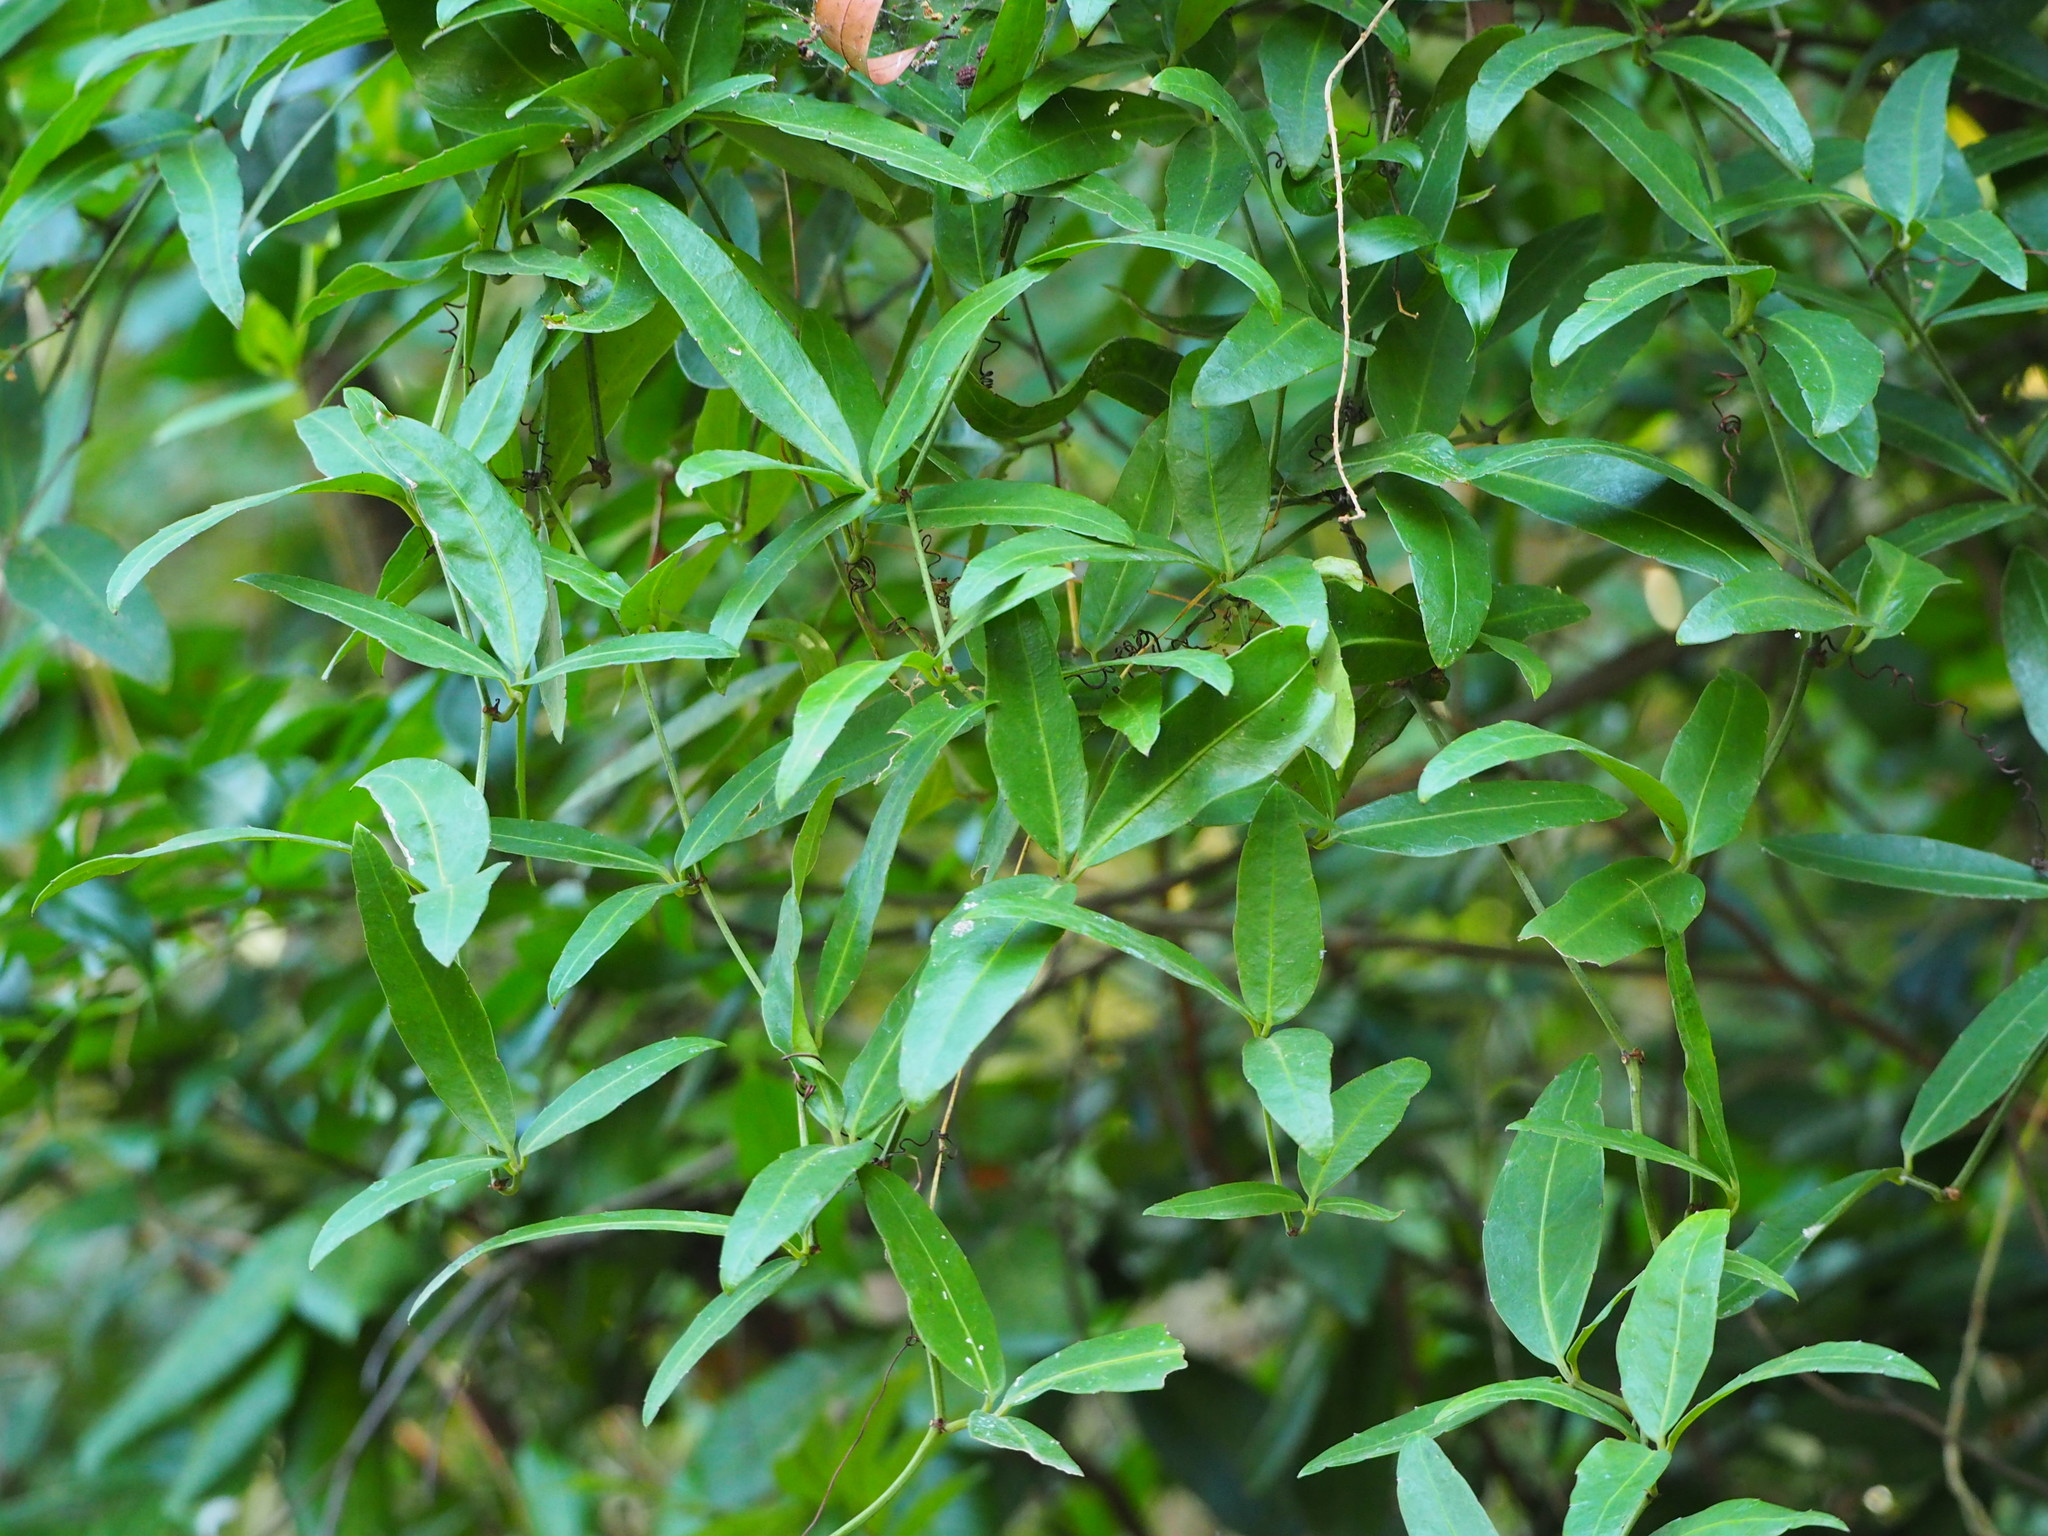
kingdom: Plantae
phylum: Tracheophyta
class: Magnoliopsida
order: Vitales
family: Vitaceae
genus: Tetrastigma
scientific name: Tetrastigma formosanum
